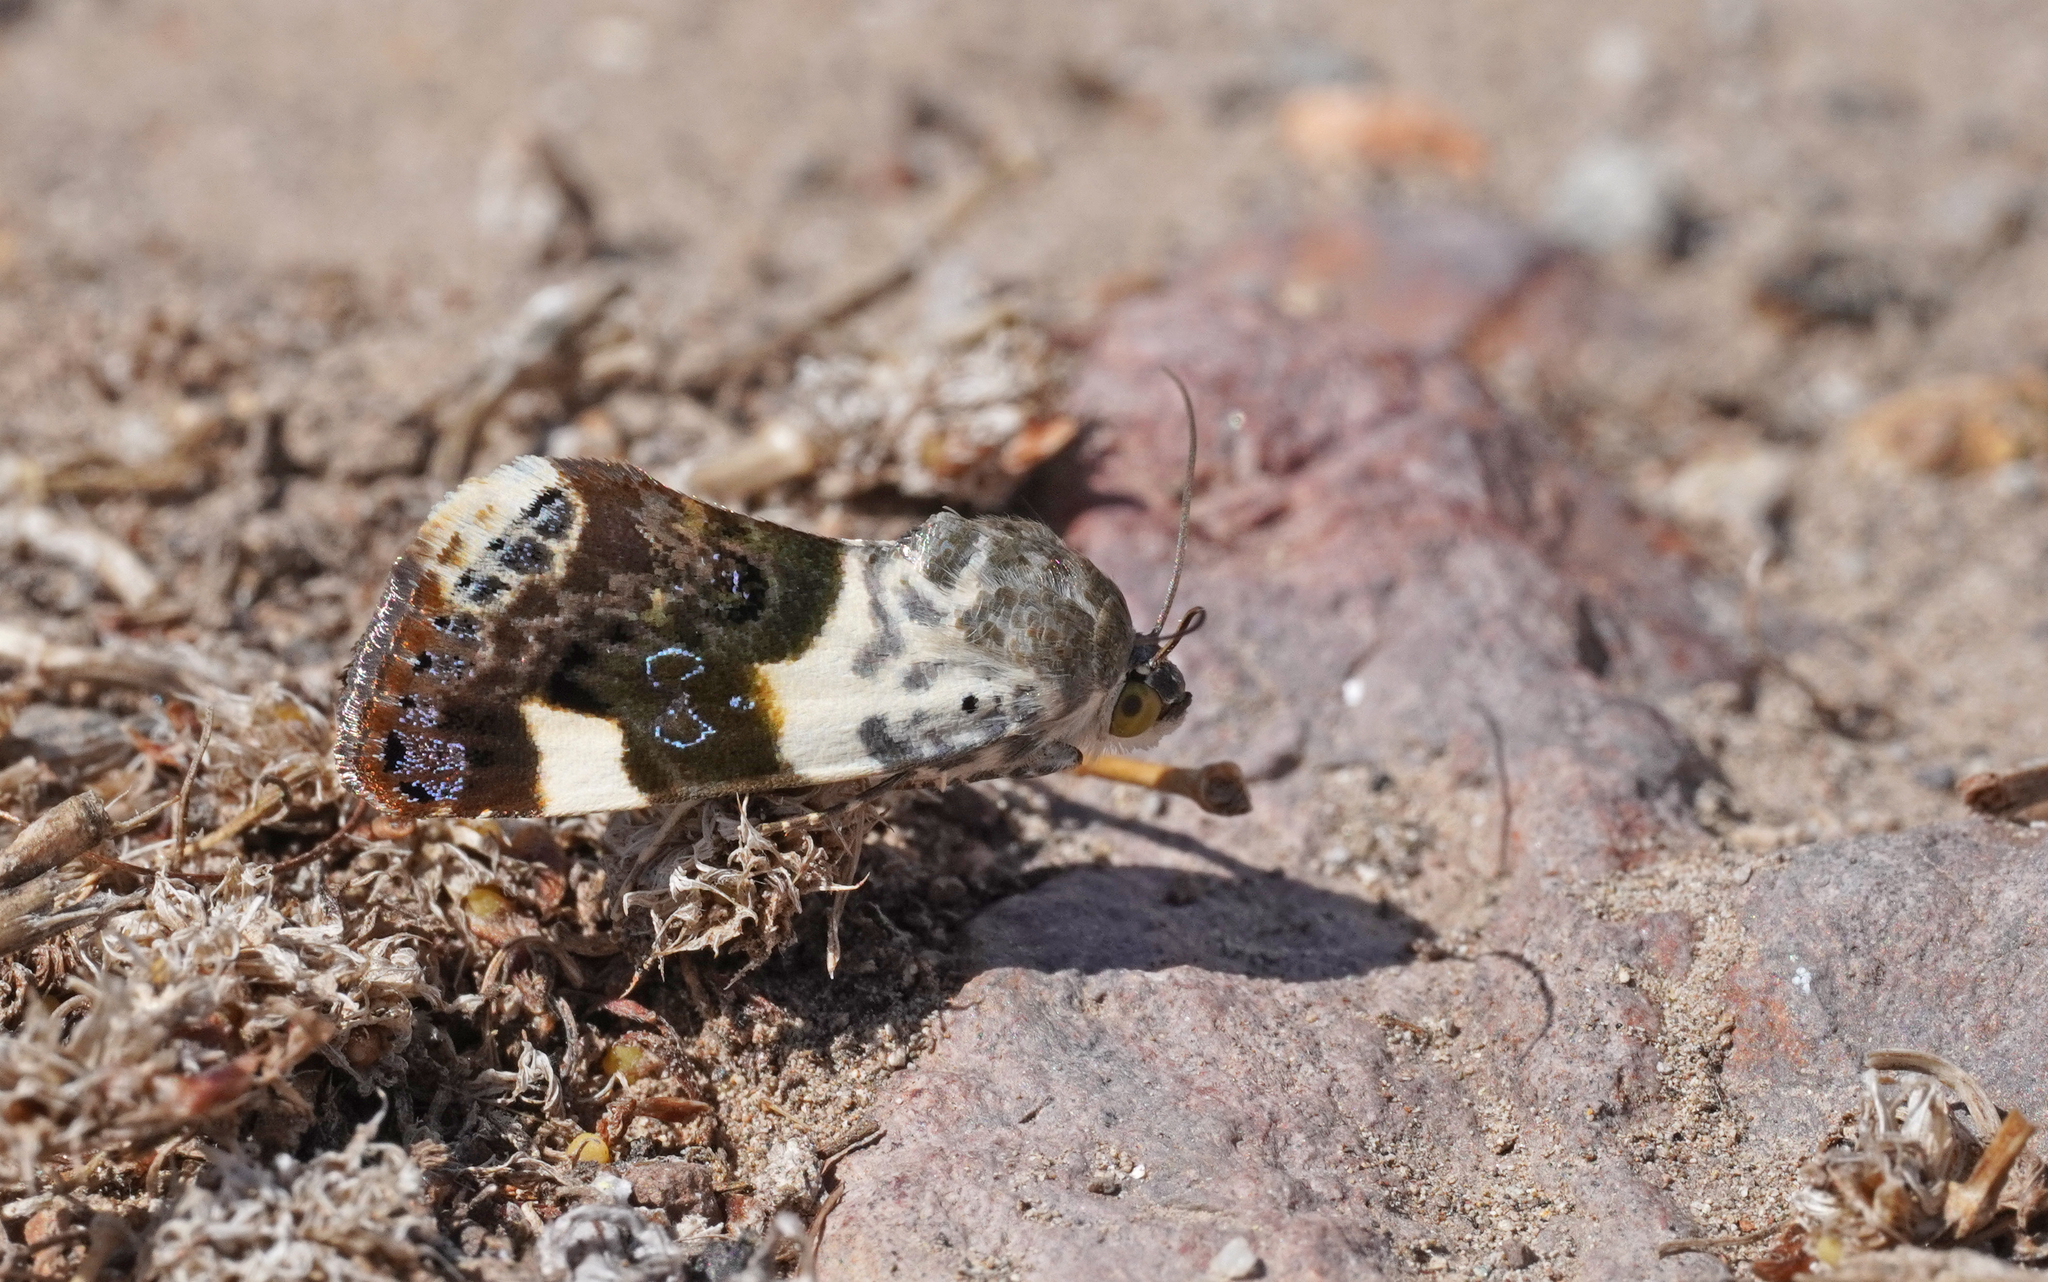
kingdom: Animalia
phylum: Arthropoda
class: Insecta
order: Lepidoptera
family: Noctuidae
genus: Acontia
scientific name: Acontia lucida
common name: Pale shoulder
